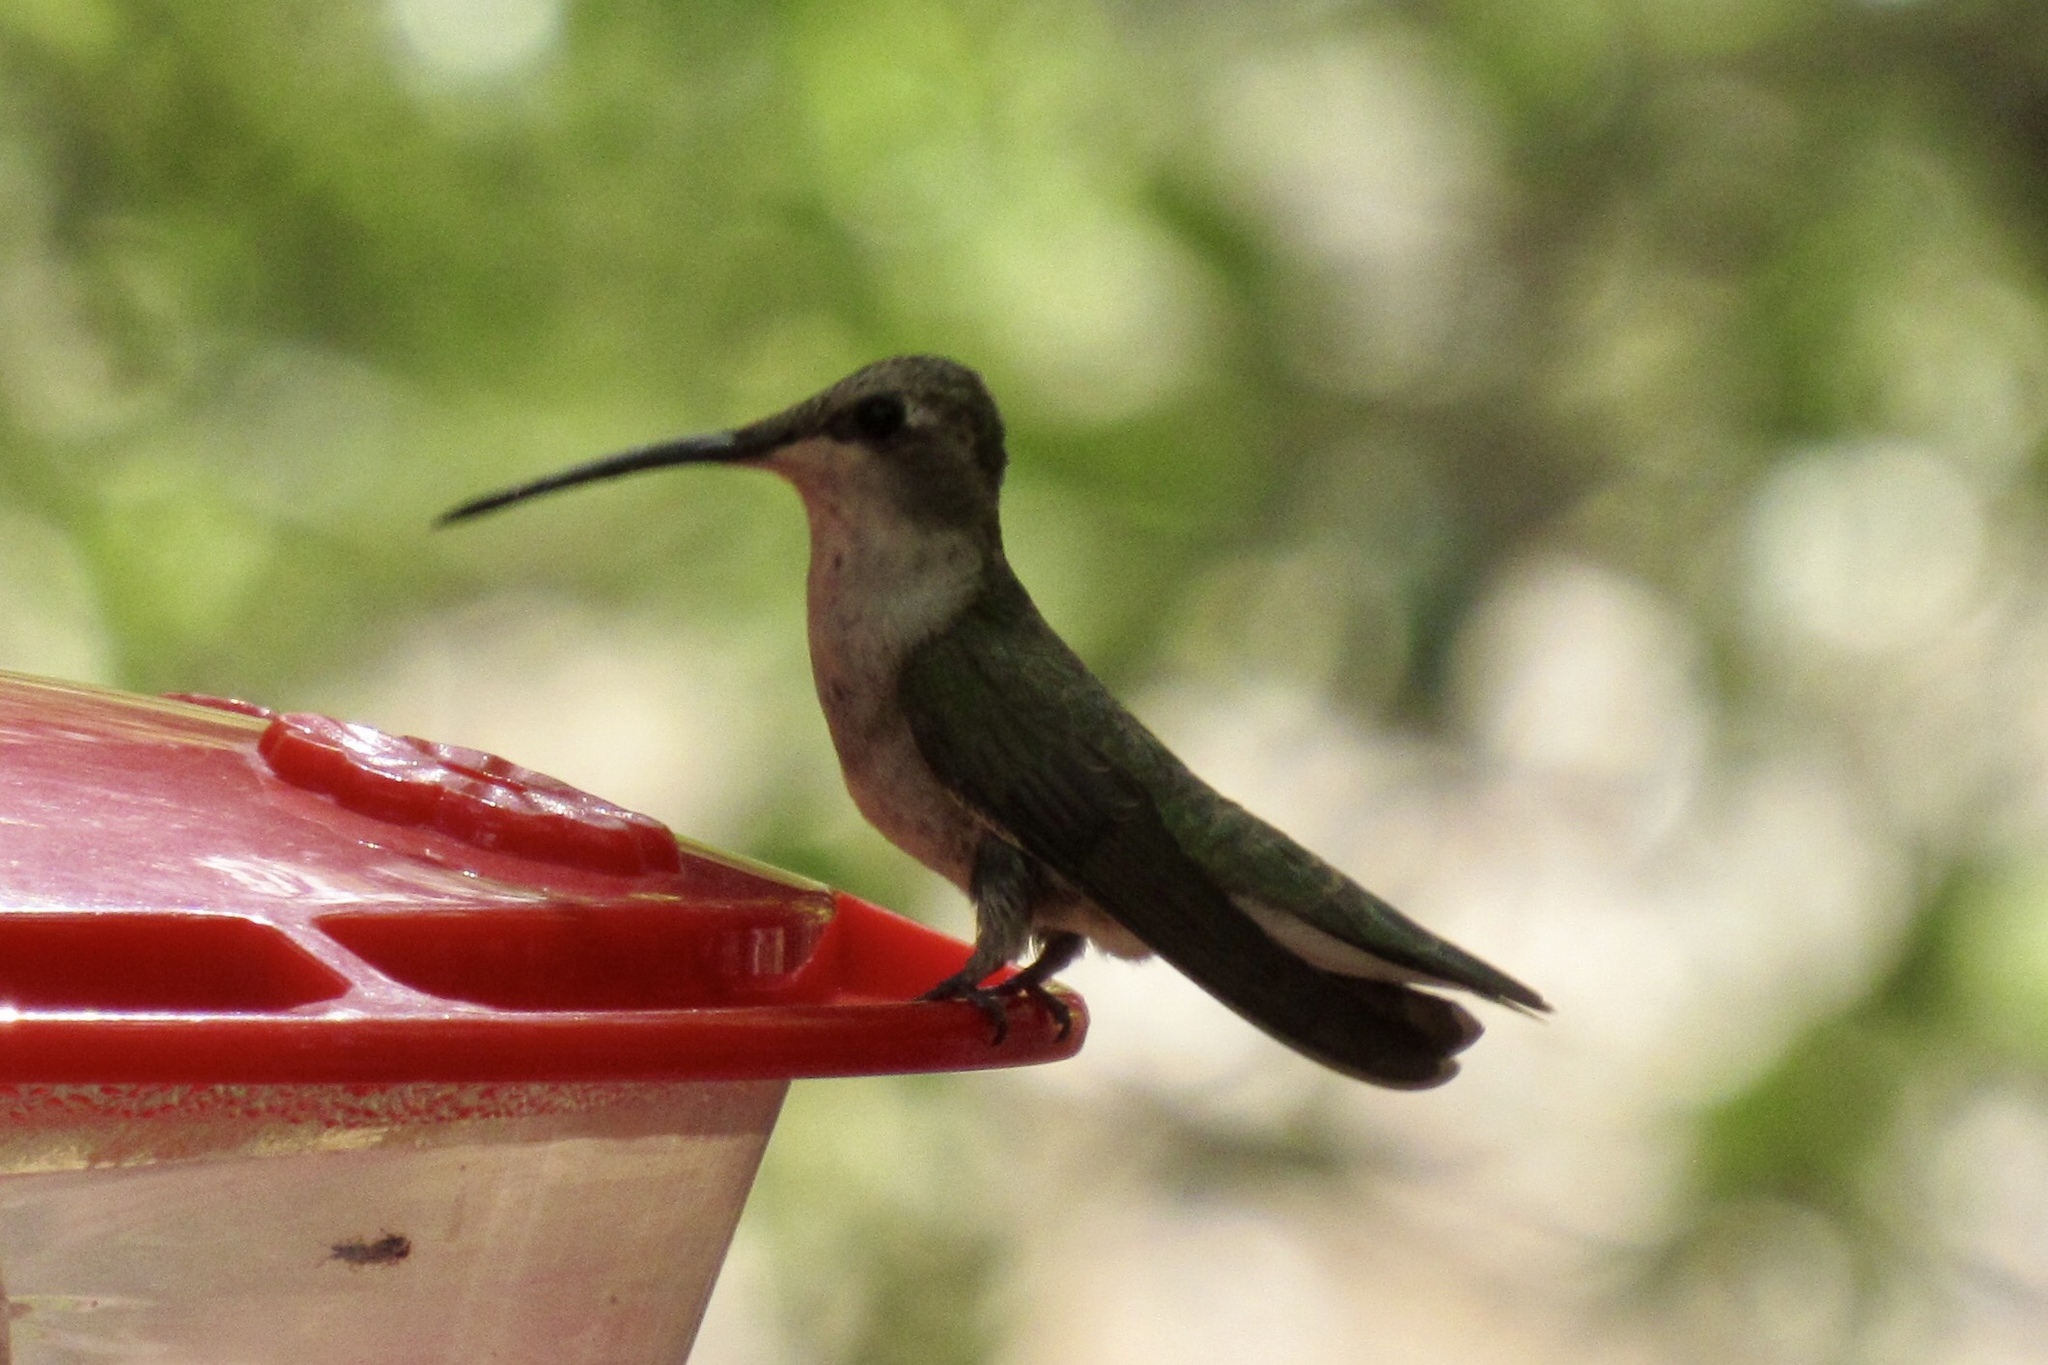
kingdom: Animalia
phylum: Chordata
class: Aves
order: Apodiformes
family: Trochilidae
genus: Archilochus
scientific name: Archilochus alexandri
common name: Black-chinned hummingbird
